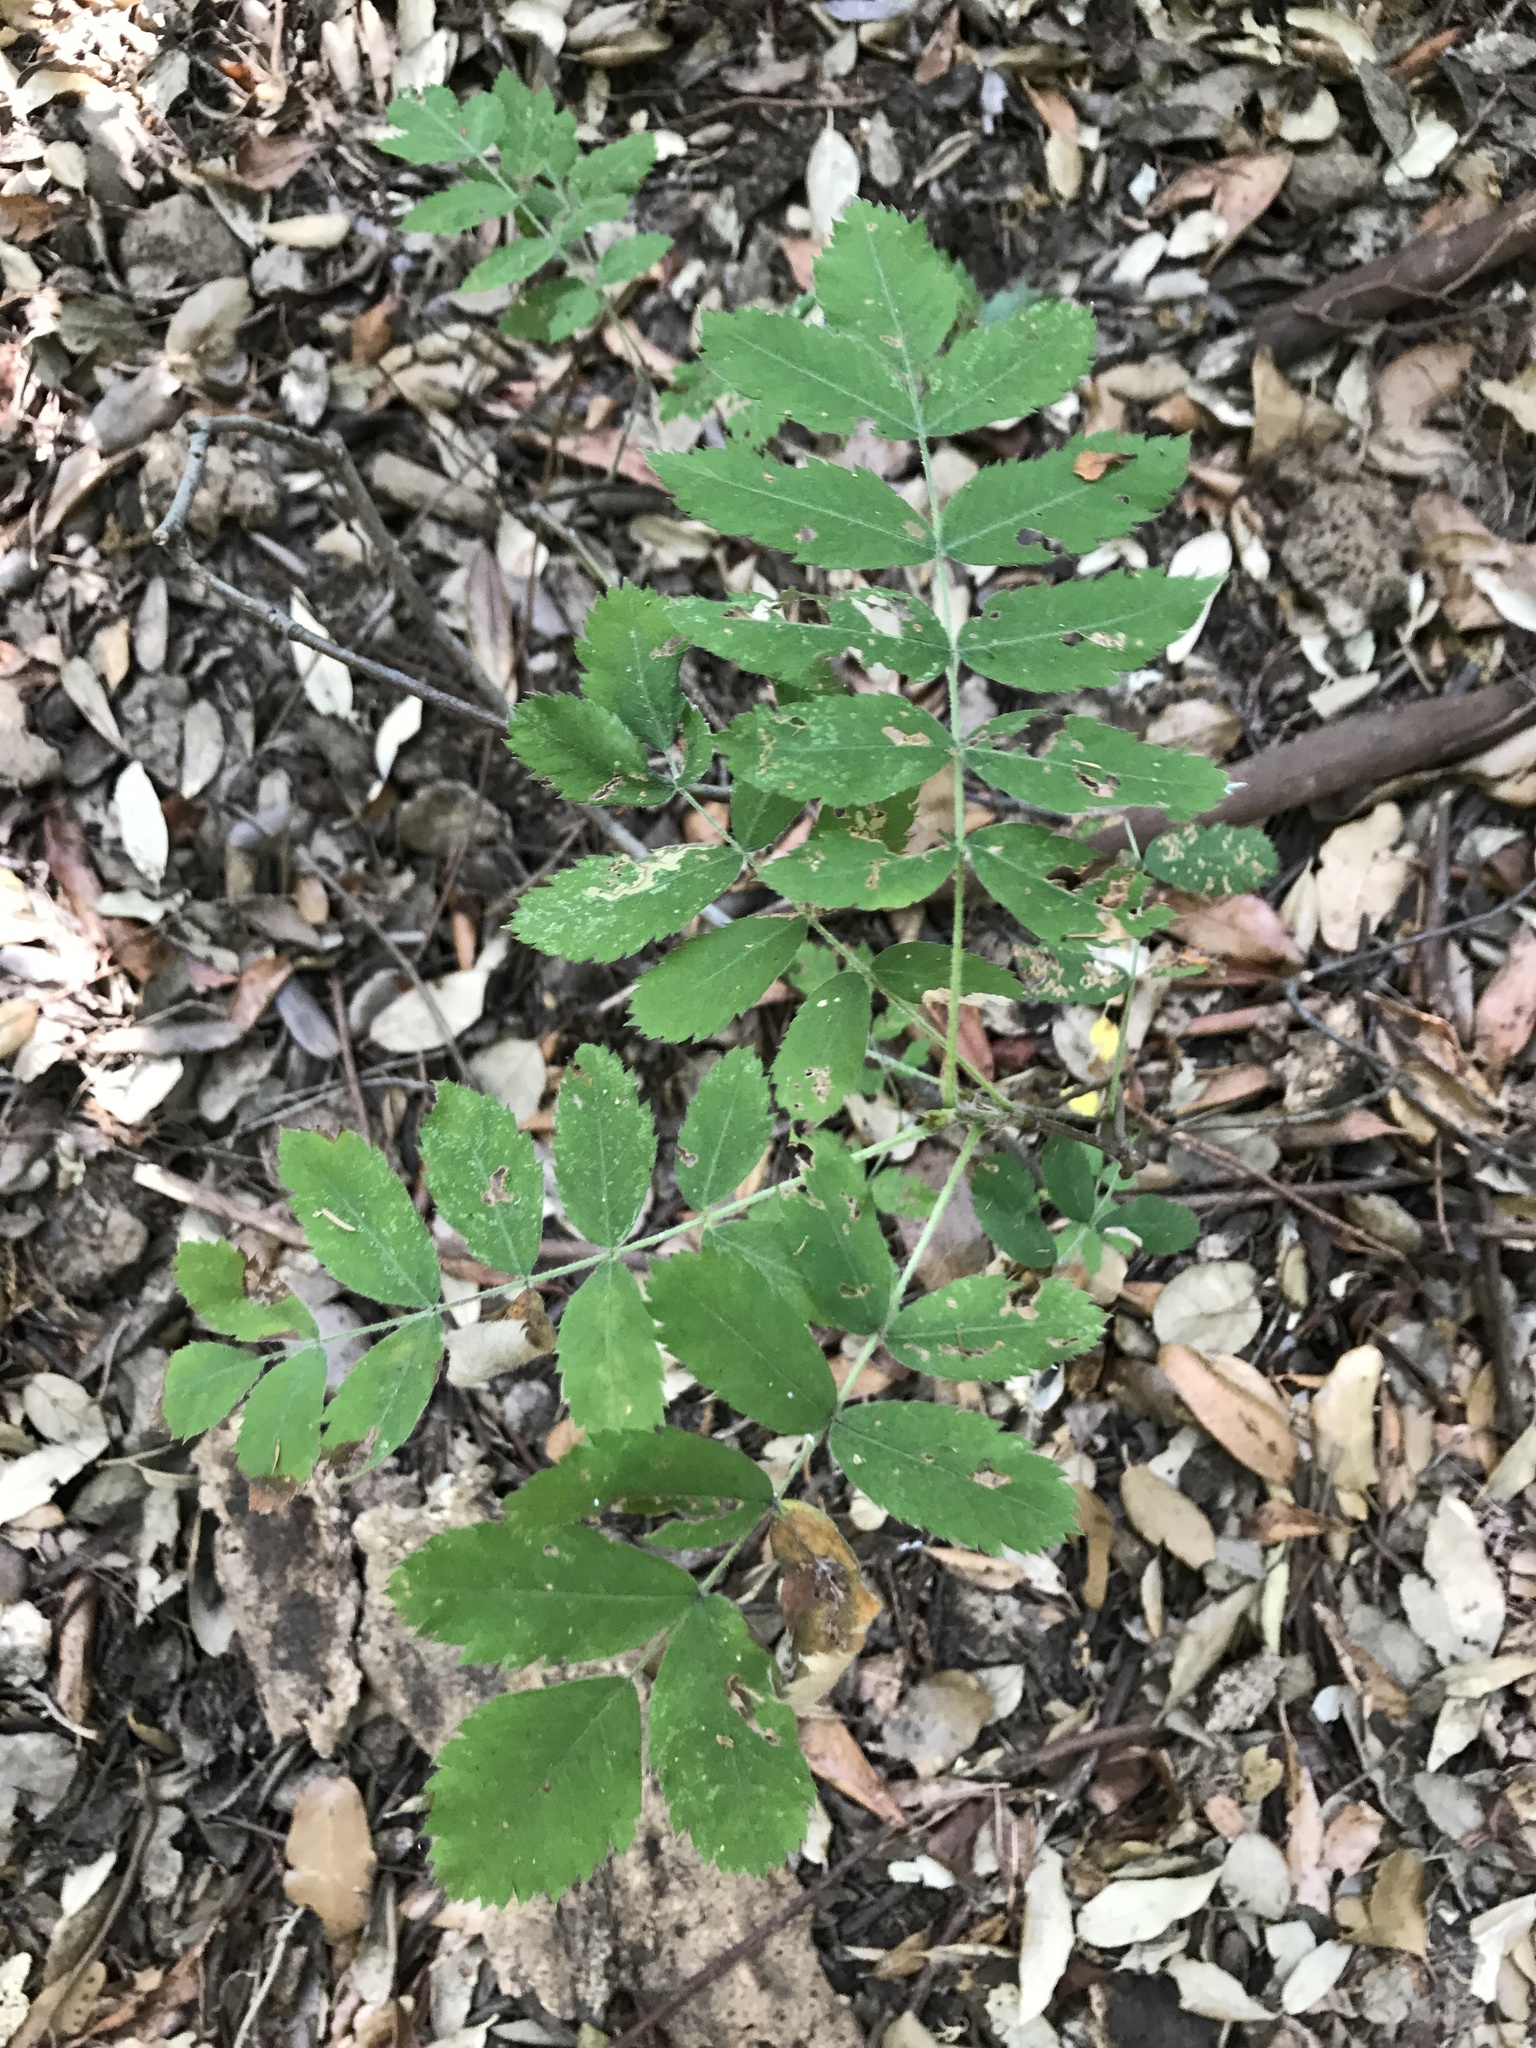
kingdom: Plantae
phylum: Tracheophyta
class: Magnoliopsida
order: Rosales
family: Rosaceae
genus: Sorbus
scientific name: Sorbus aucuparia
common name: Rowan
